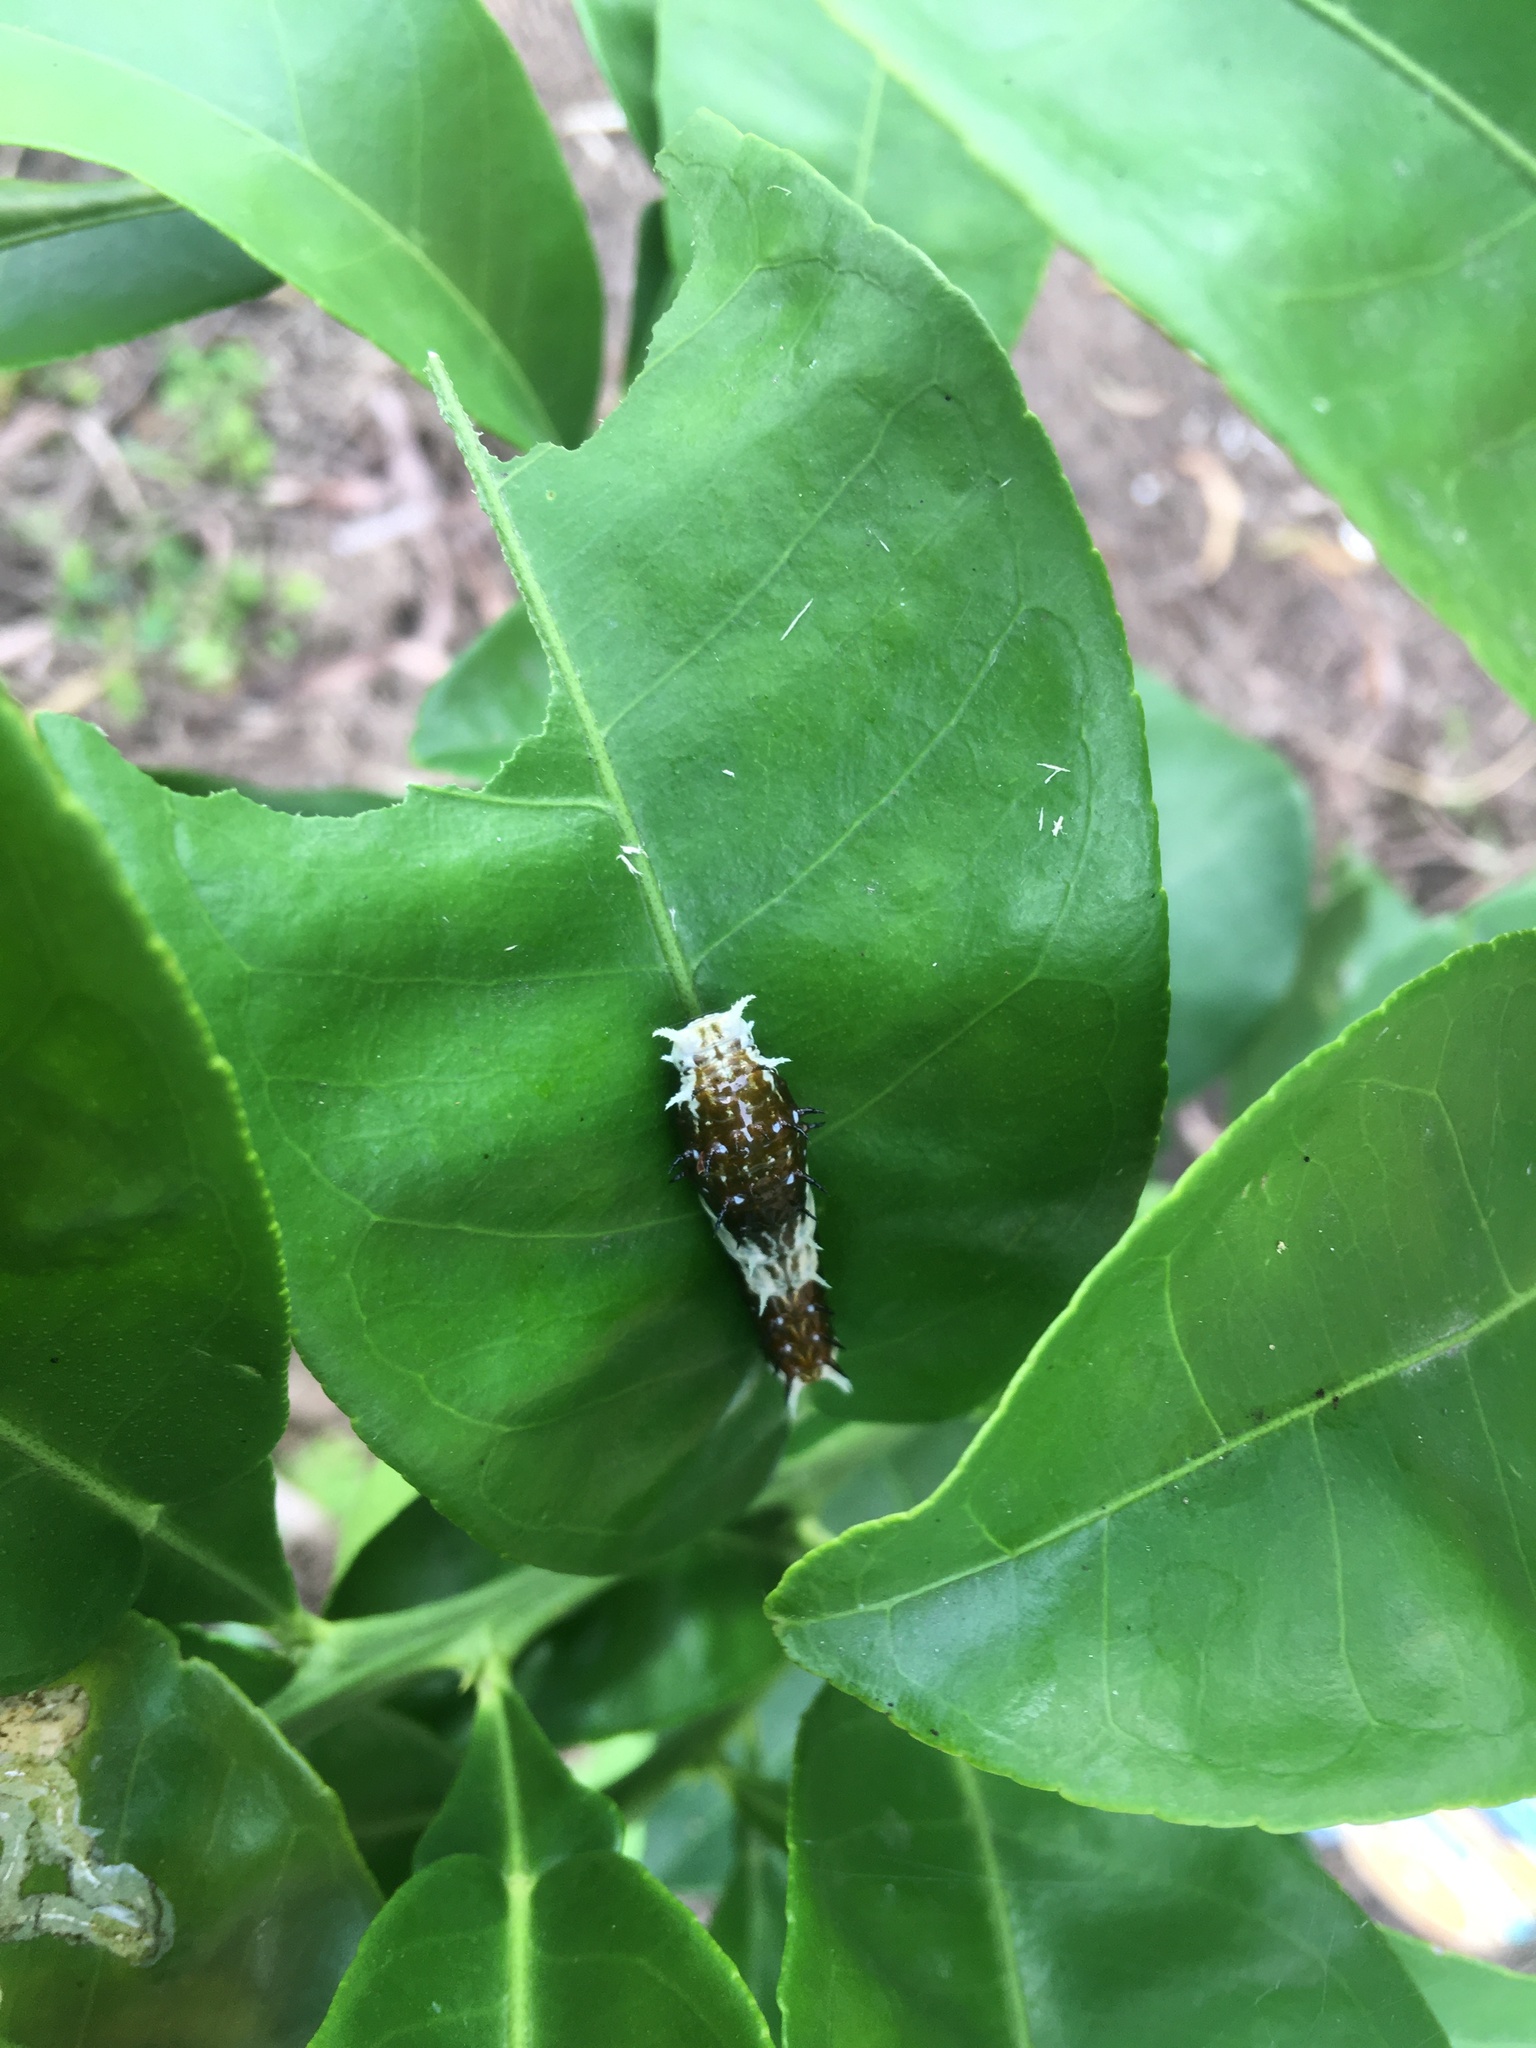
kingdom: Animalia
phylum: Arthropoda
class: Insecta
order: Lepidoptera
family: Papilionidae
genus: Papilio
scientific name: Papilio aegeus
